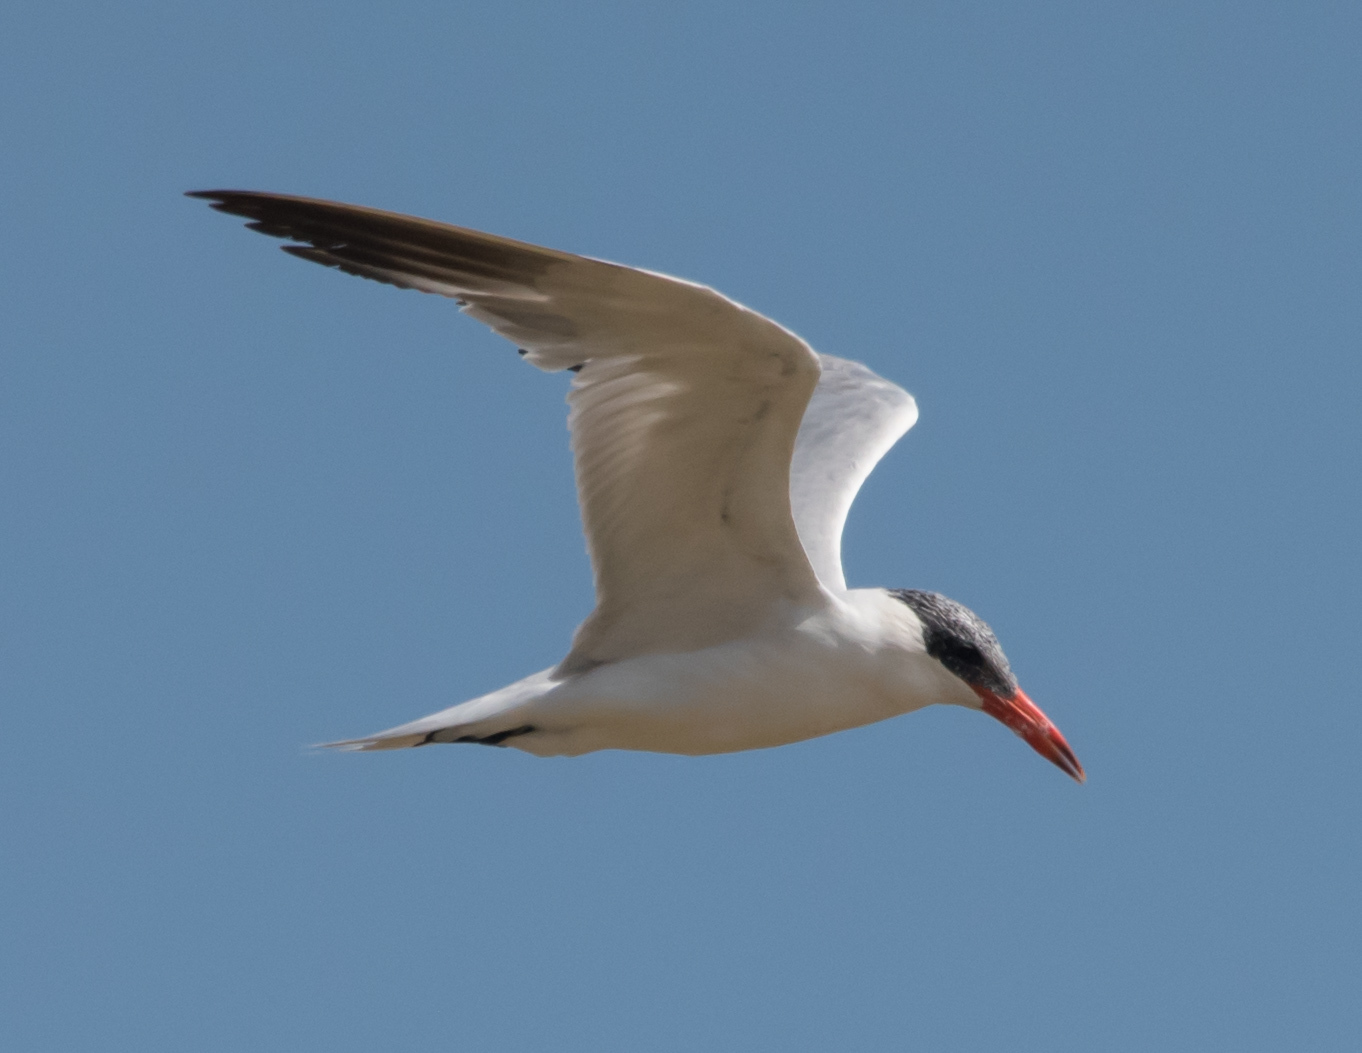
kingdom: Animalia
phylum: Chordata
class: Aves
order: Charadriiformes
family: Laridae
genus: Hydroprogne
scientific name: Hydroprogne caspia
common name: Caspian tern
